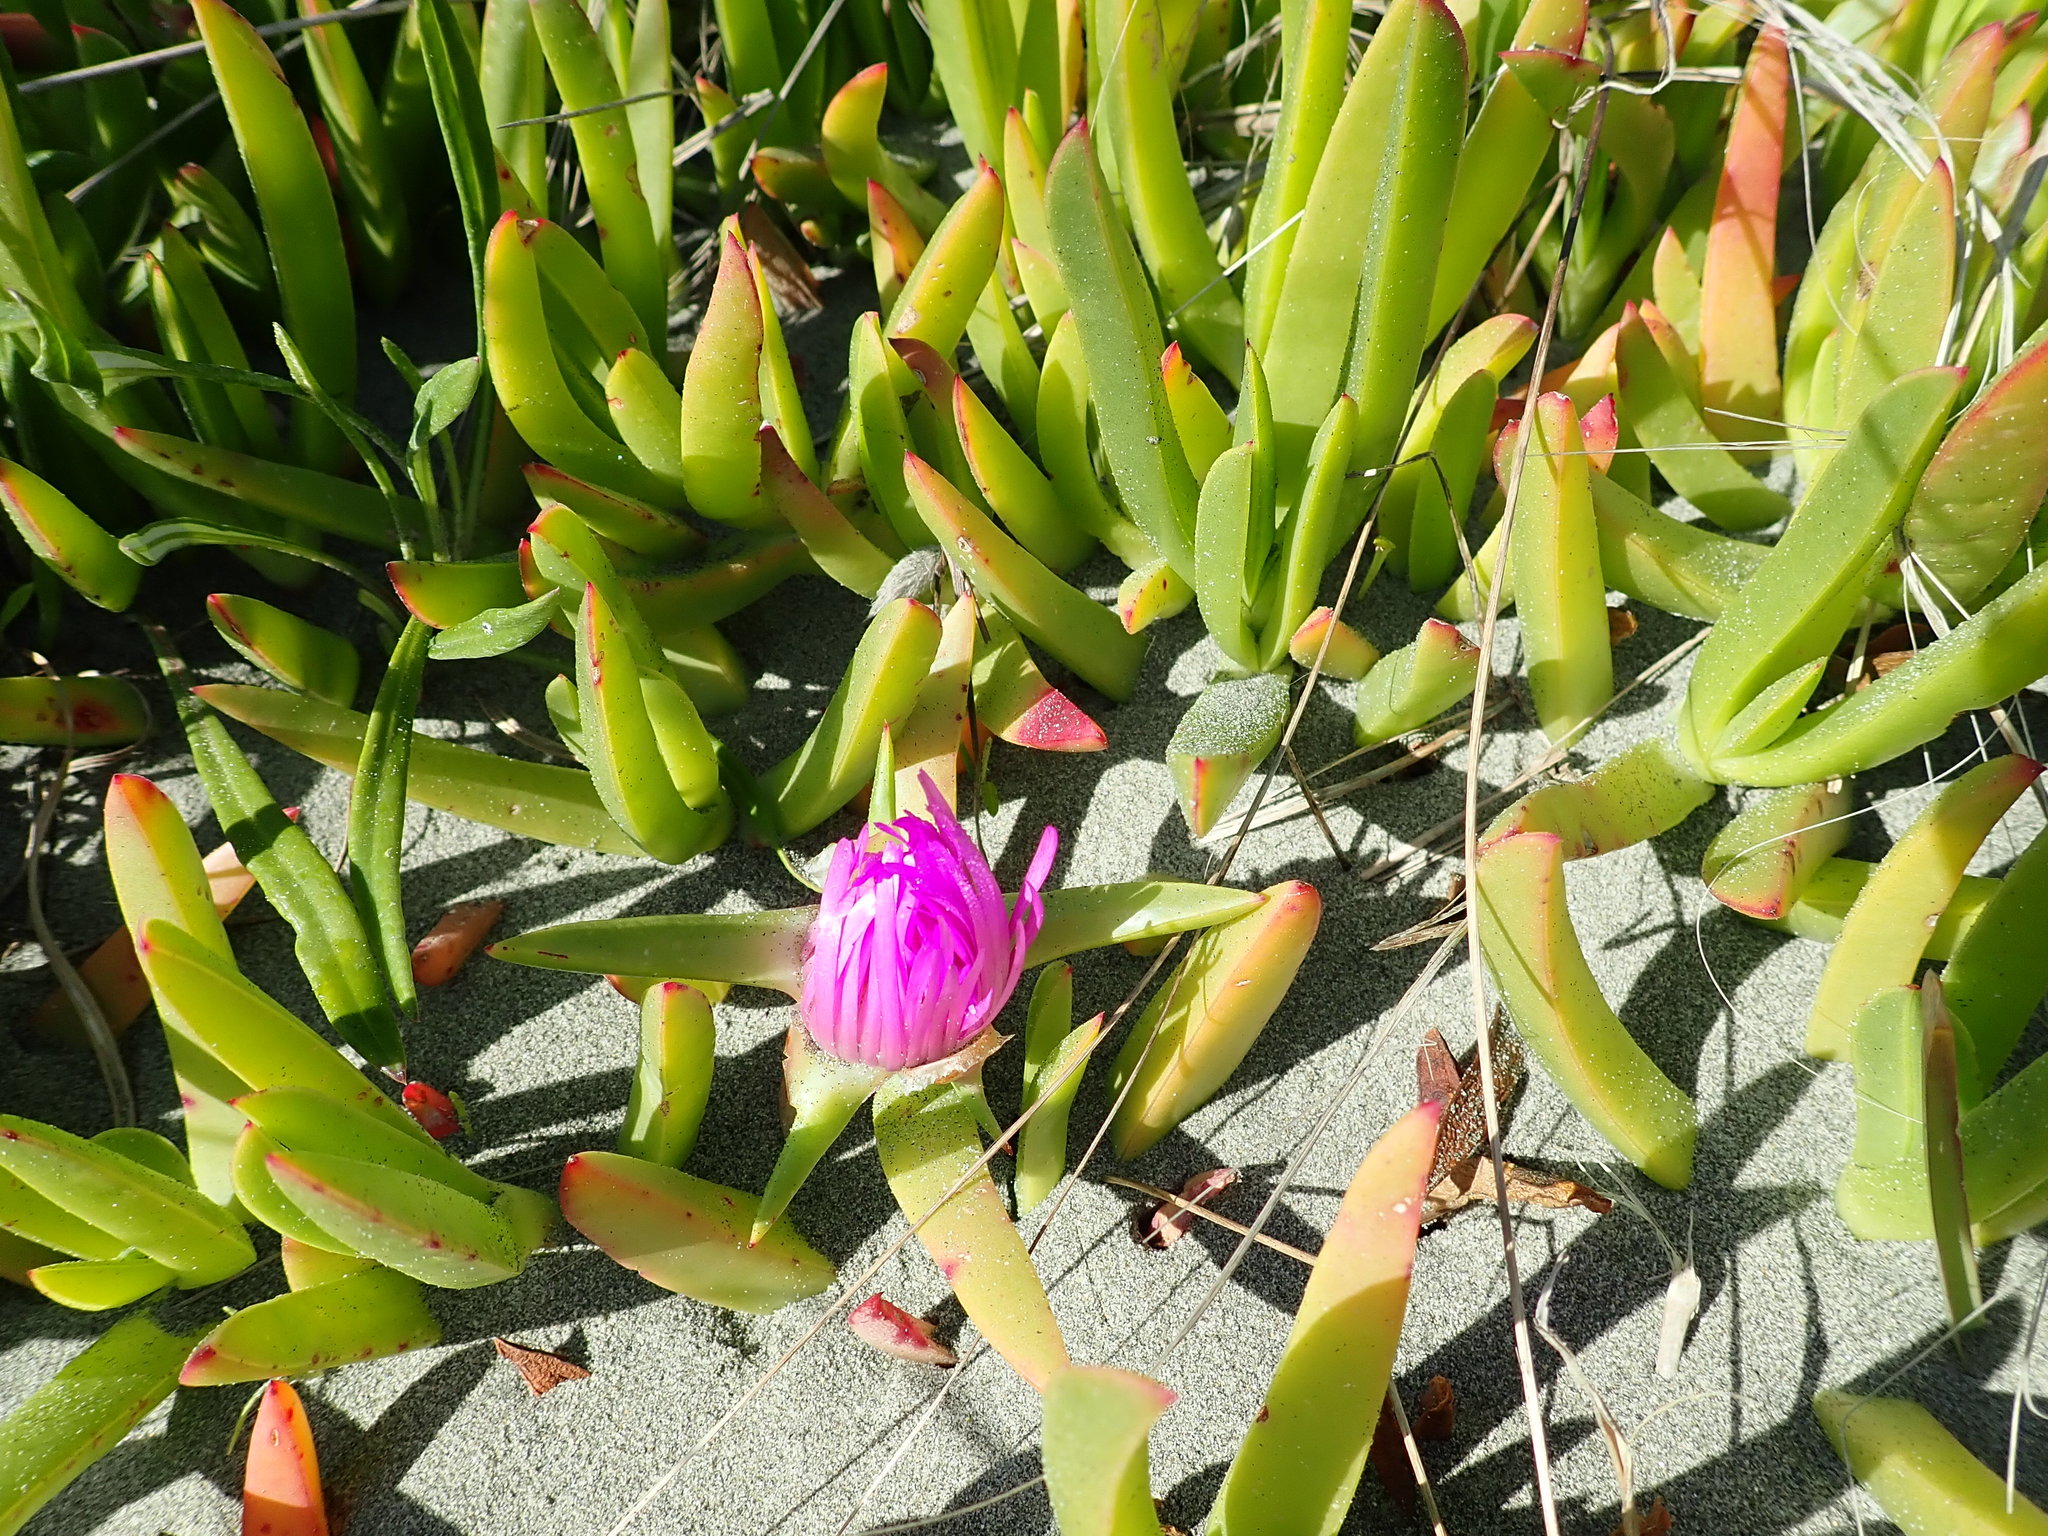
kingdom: Plantae
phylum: Tracheophyta
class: Magnoliopsida
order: Caryophyllales
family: Aizoaceae
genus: Carpobrotus
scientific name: Carpobrotus chilensis
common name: Sea fig
